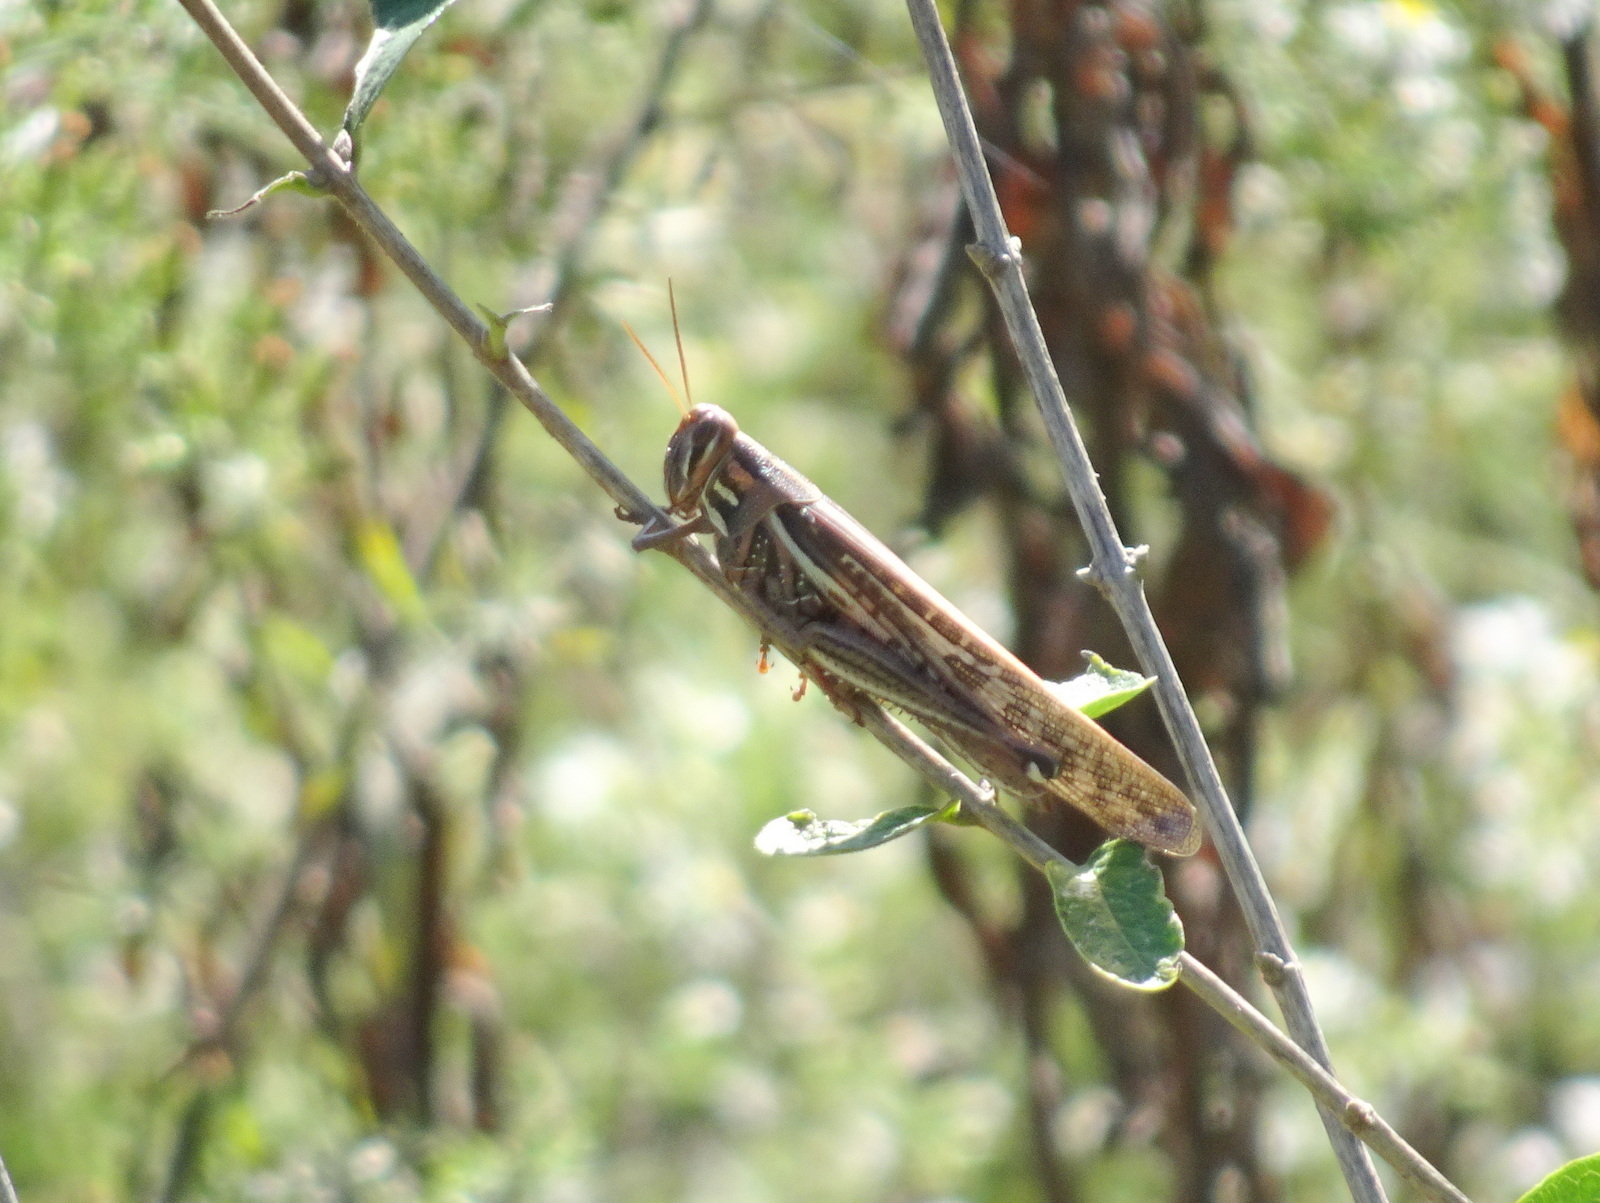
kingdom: Animalia
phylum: Arthropoda
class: Insecta
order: Orthoptera
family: Acrididae
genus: Schistocerca
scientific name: Schistocerca americana
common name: American bird locust
